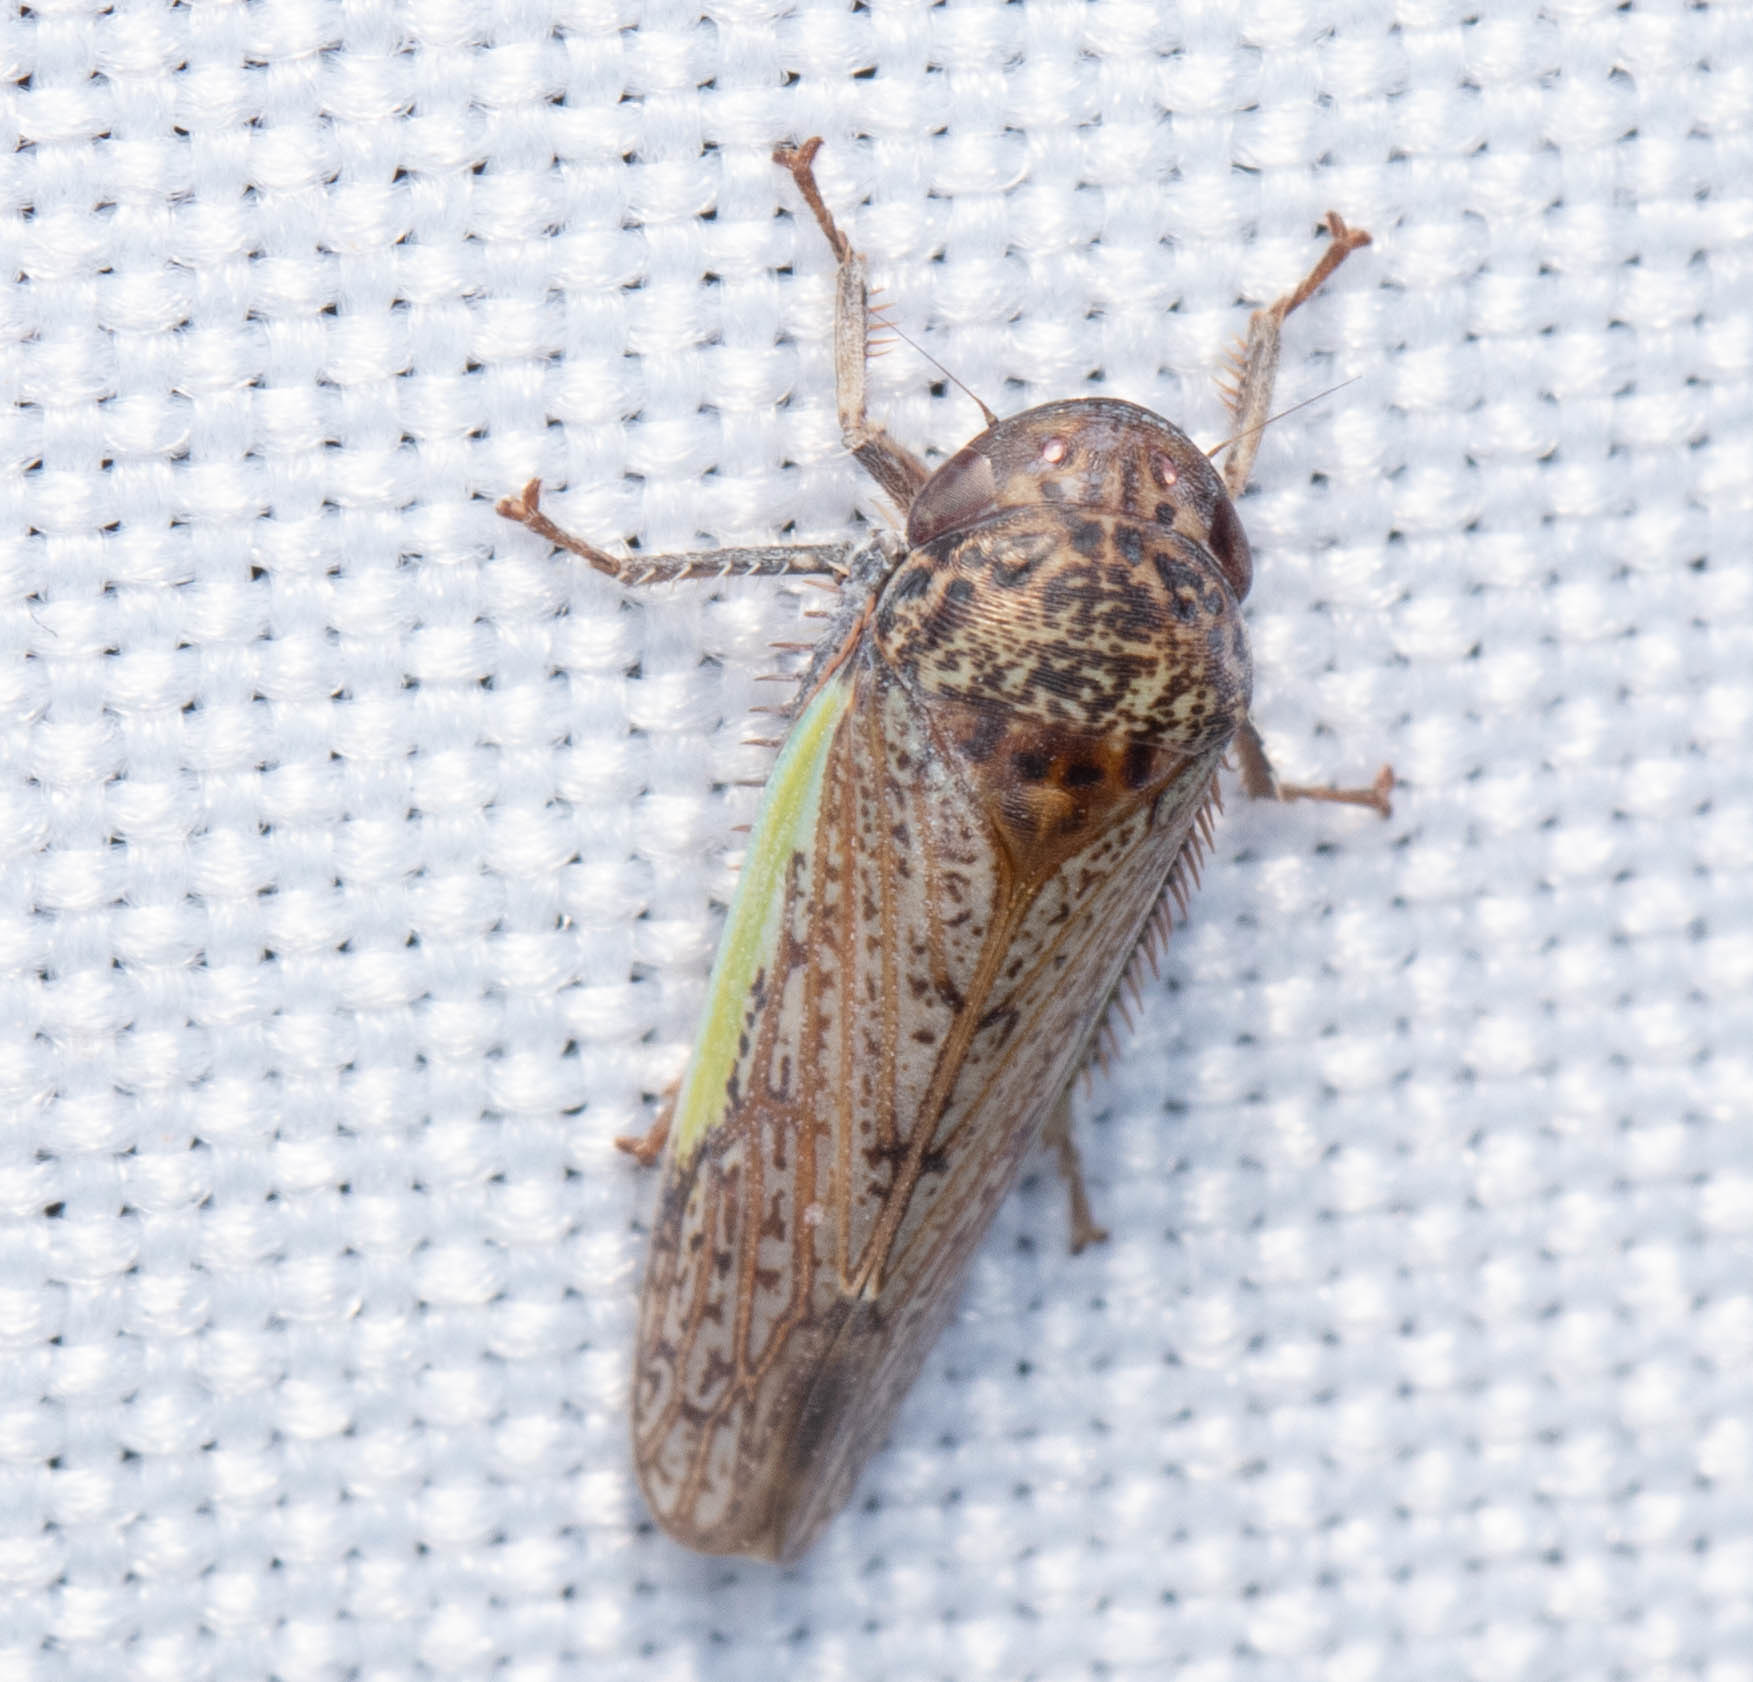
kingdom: Animalia
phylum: Arthropoda
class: Insecta
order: Hemiptera
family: Cicadellidae
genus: Hamana
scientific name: Hamana gelbata
